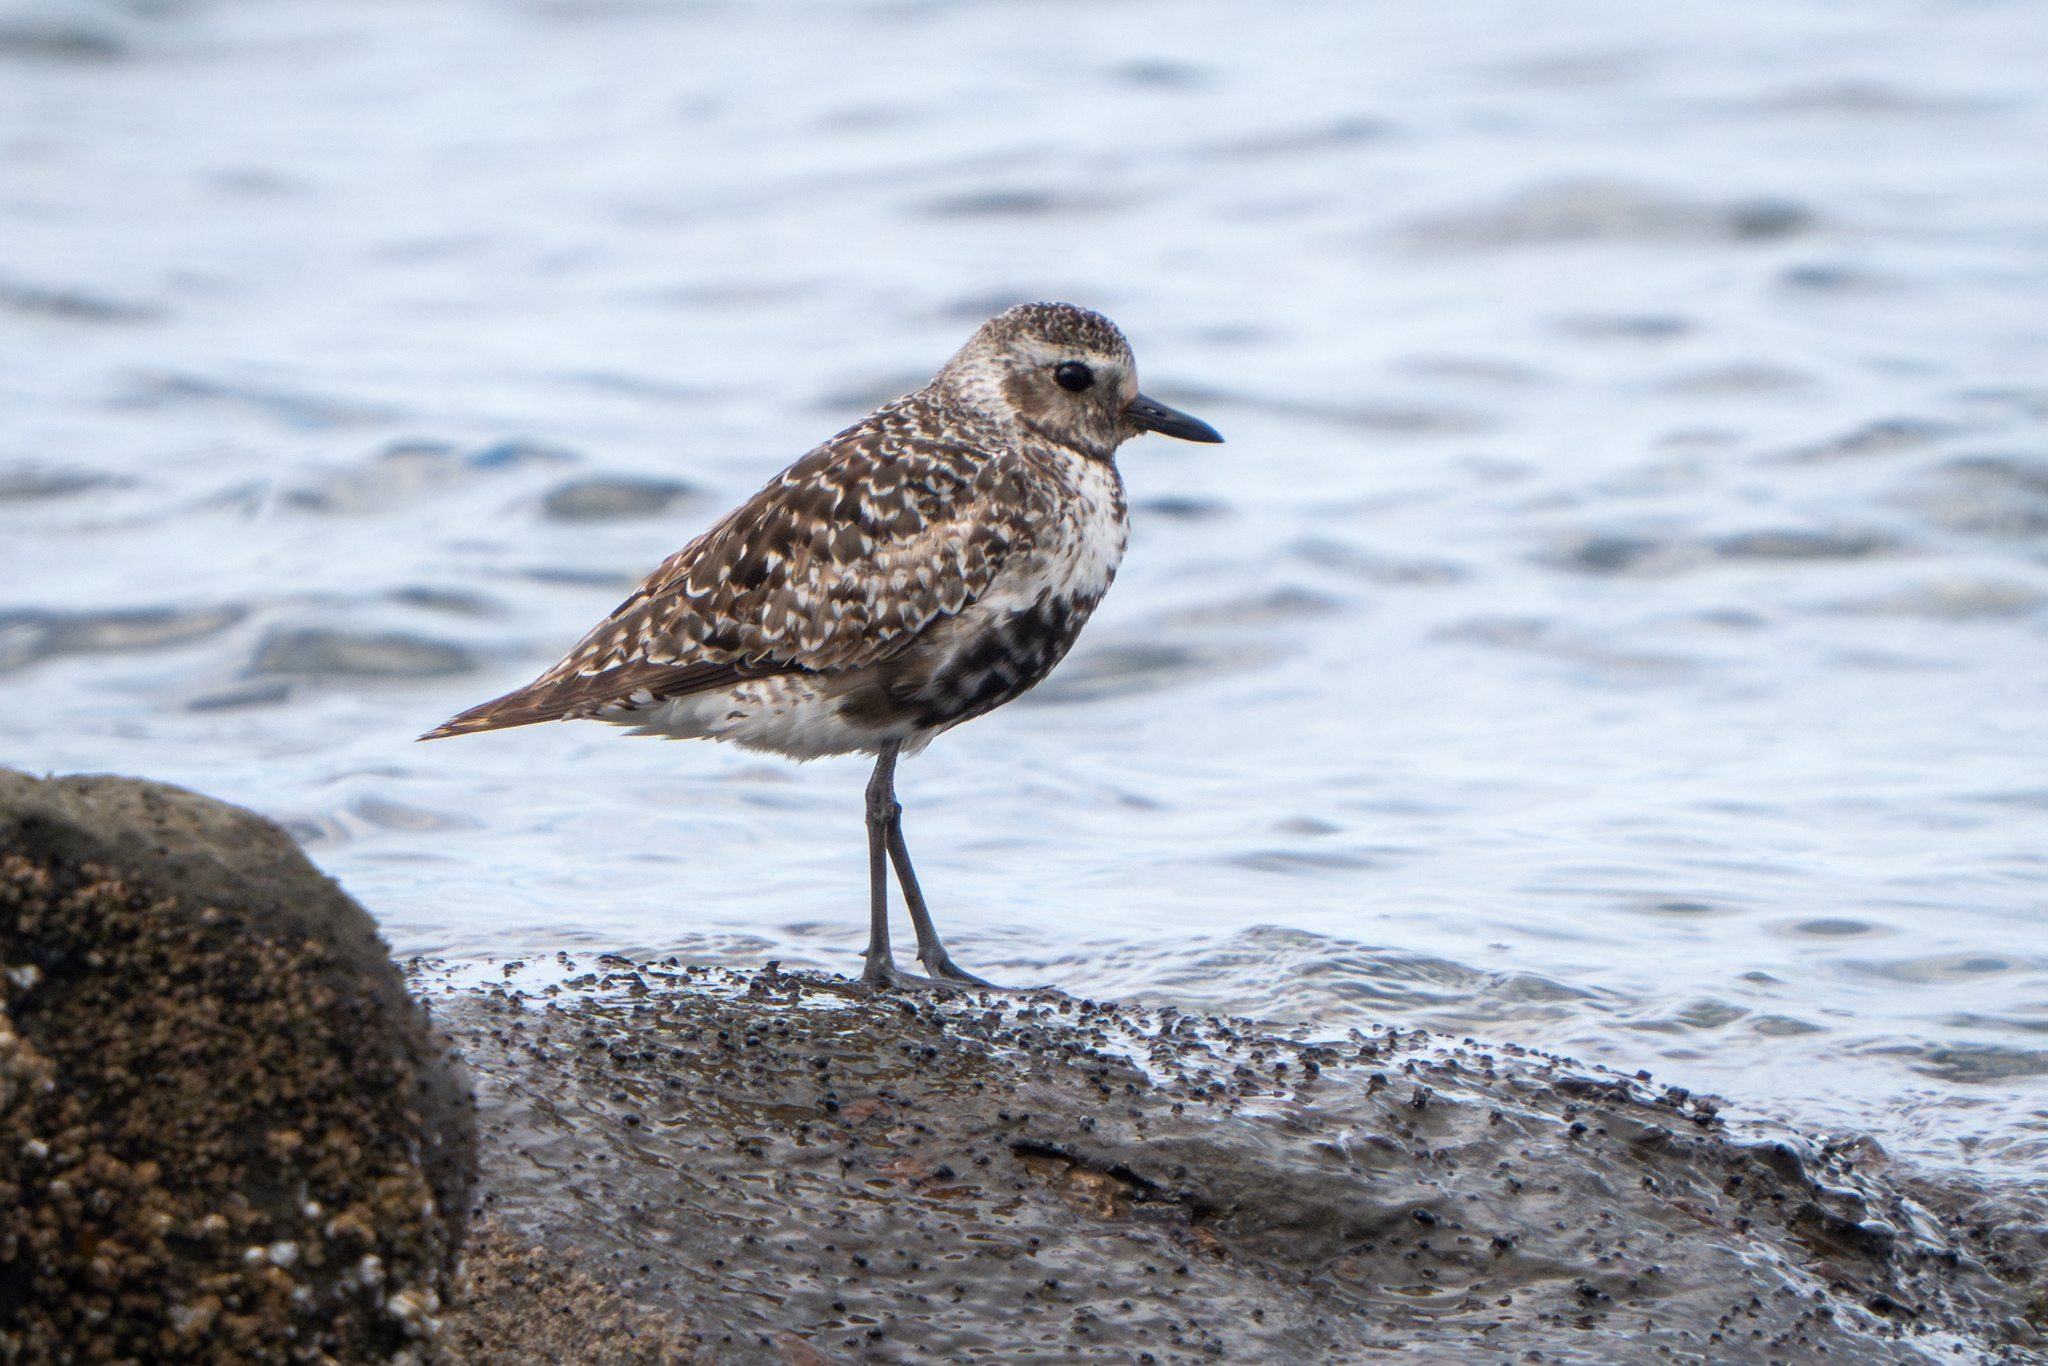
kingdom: Animalia
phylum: Chordata
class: Aves
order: Charadriiformes
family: Charadriidae
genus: Pluvialis
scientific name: Pluvialis squatarola
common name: Grey plover
